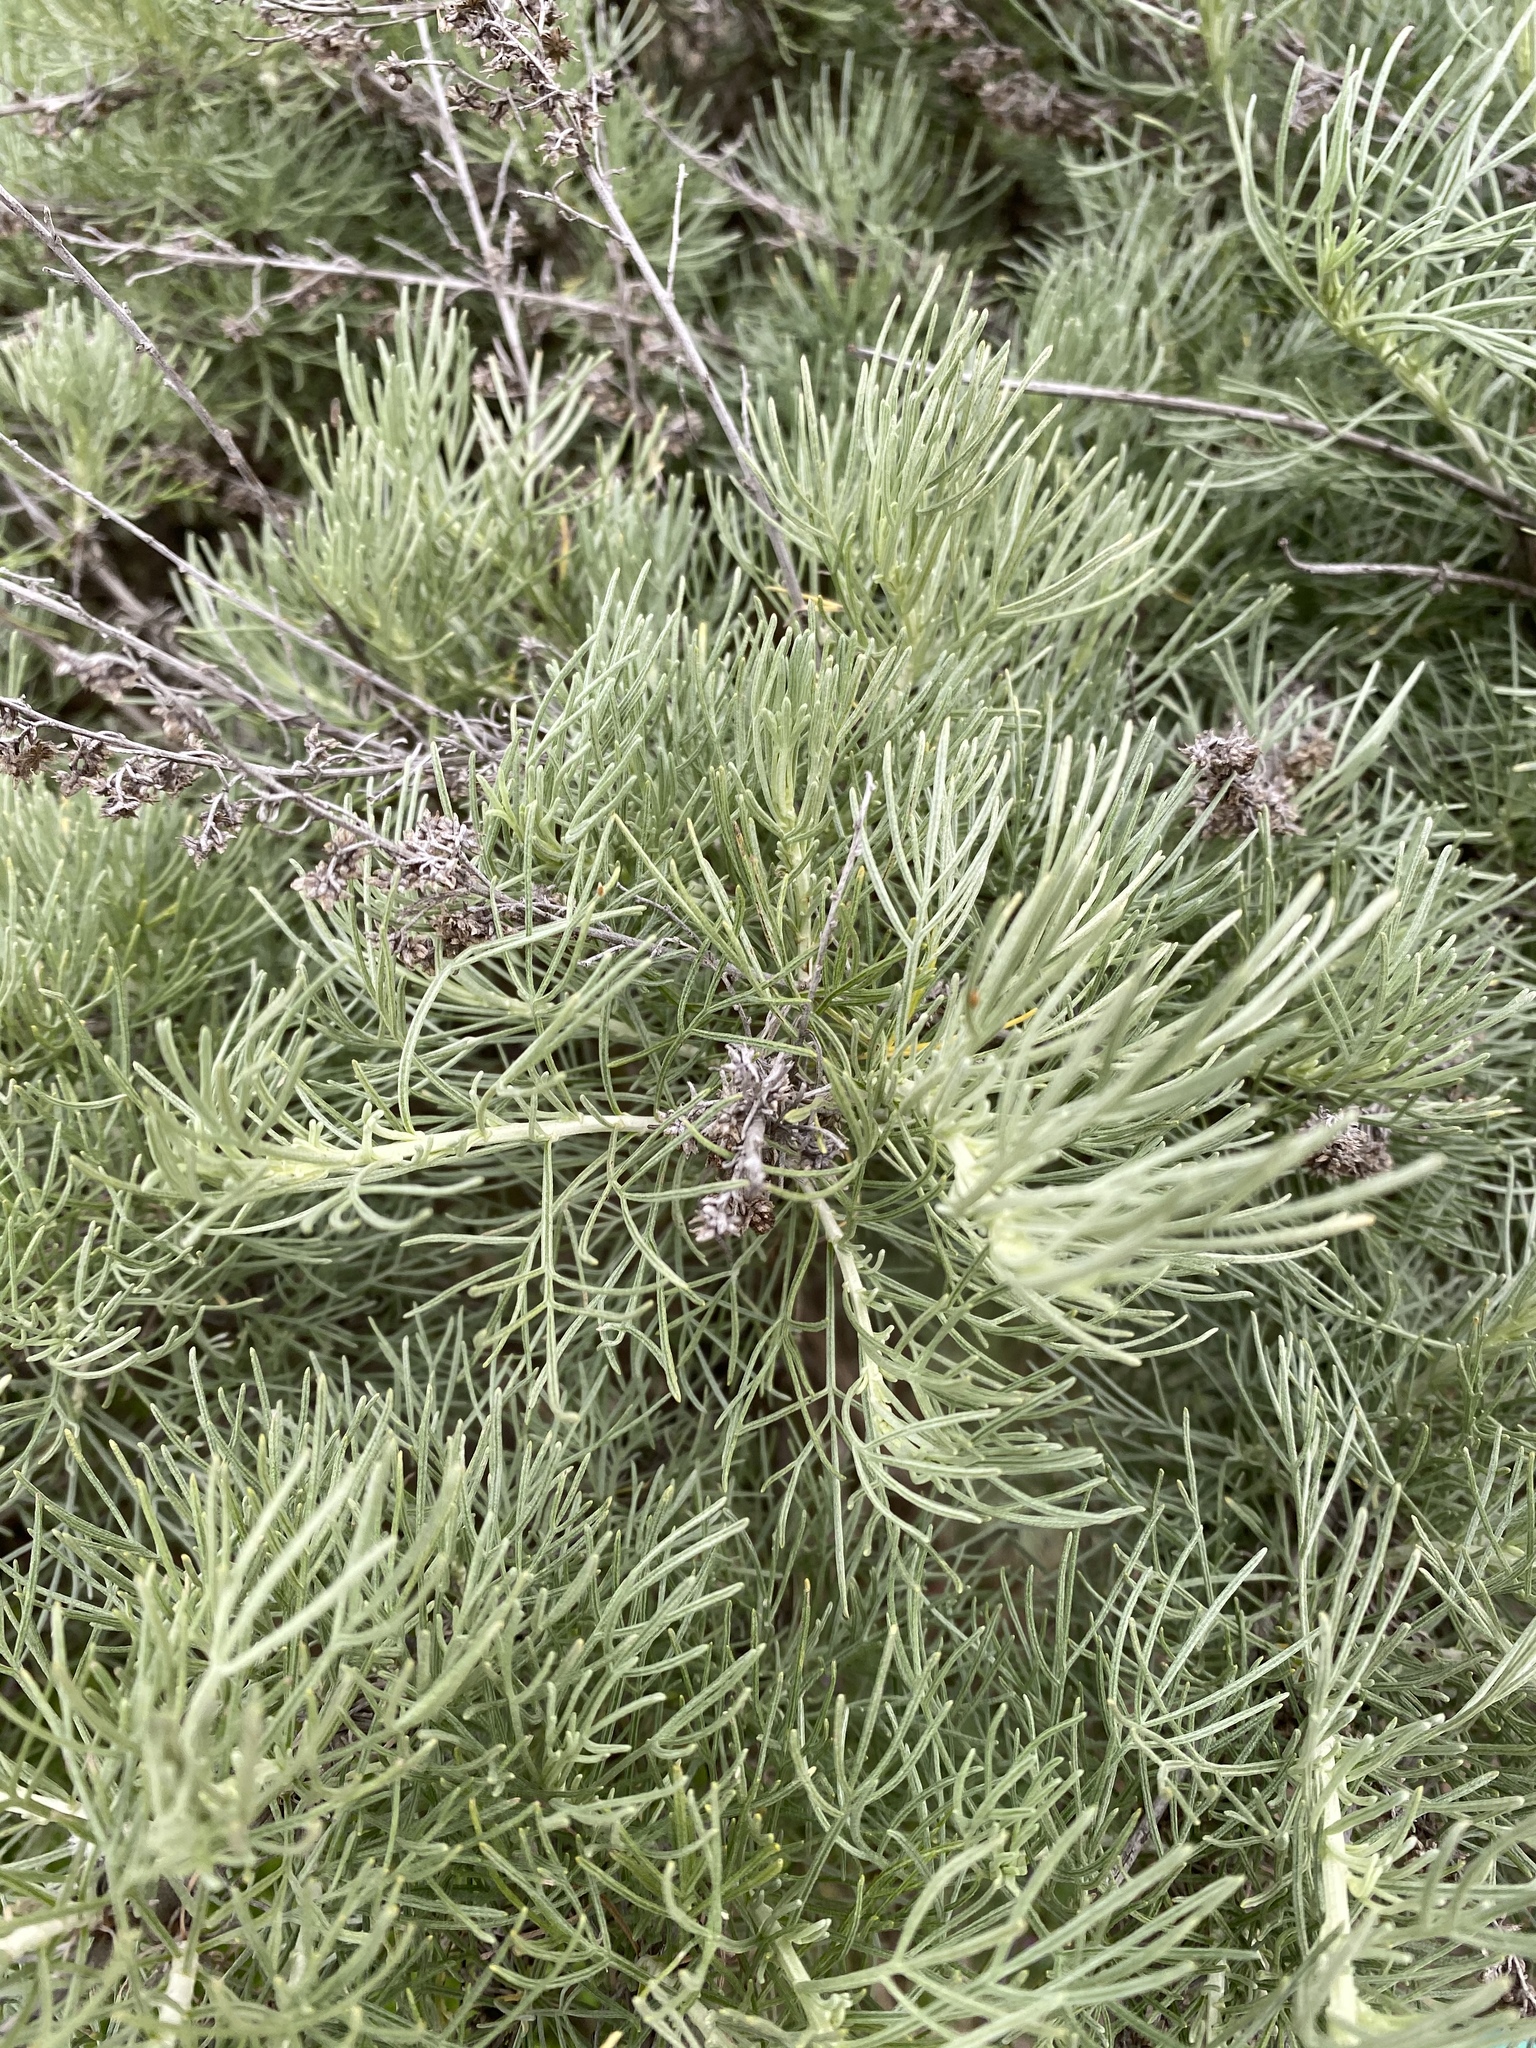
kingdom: Plantae
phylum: Tracheophyta
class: Magnoliopsida
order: Asterales
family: Asteraceae
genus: Artemisia
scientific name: Artemisia californica
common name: California sagebrush
